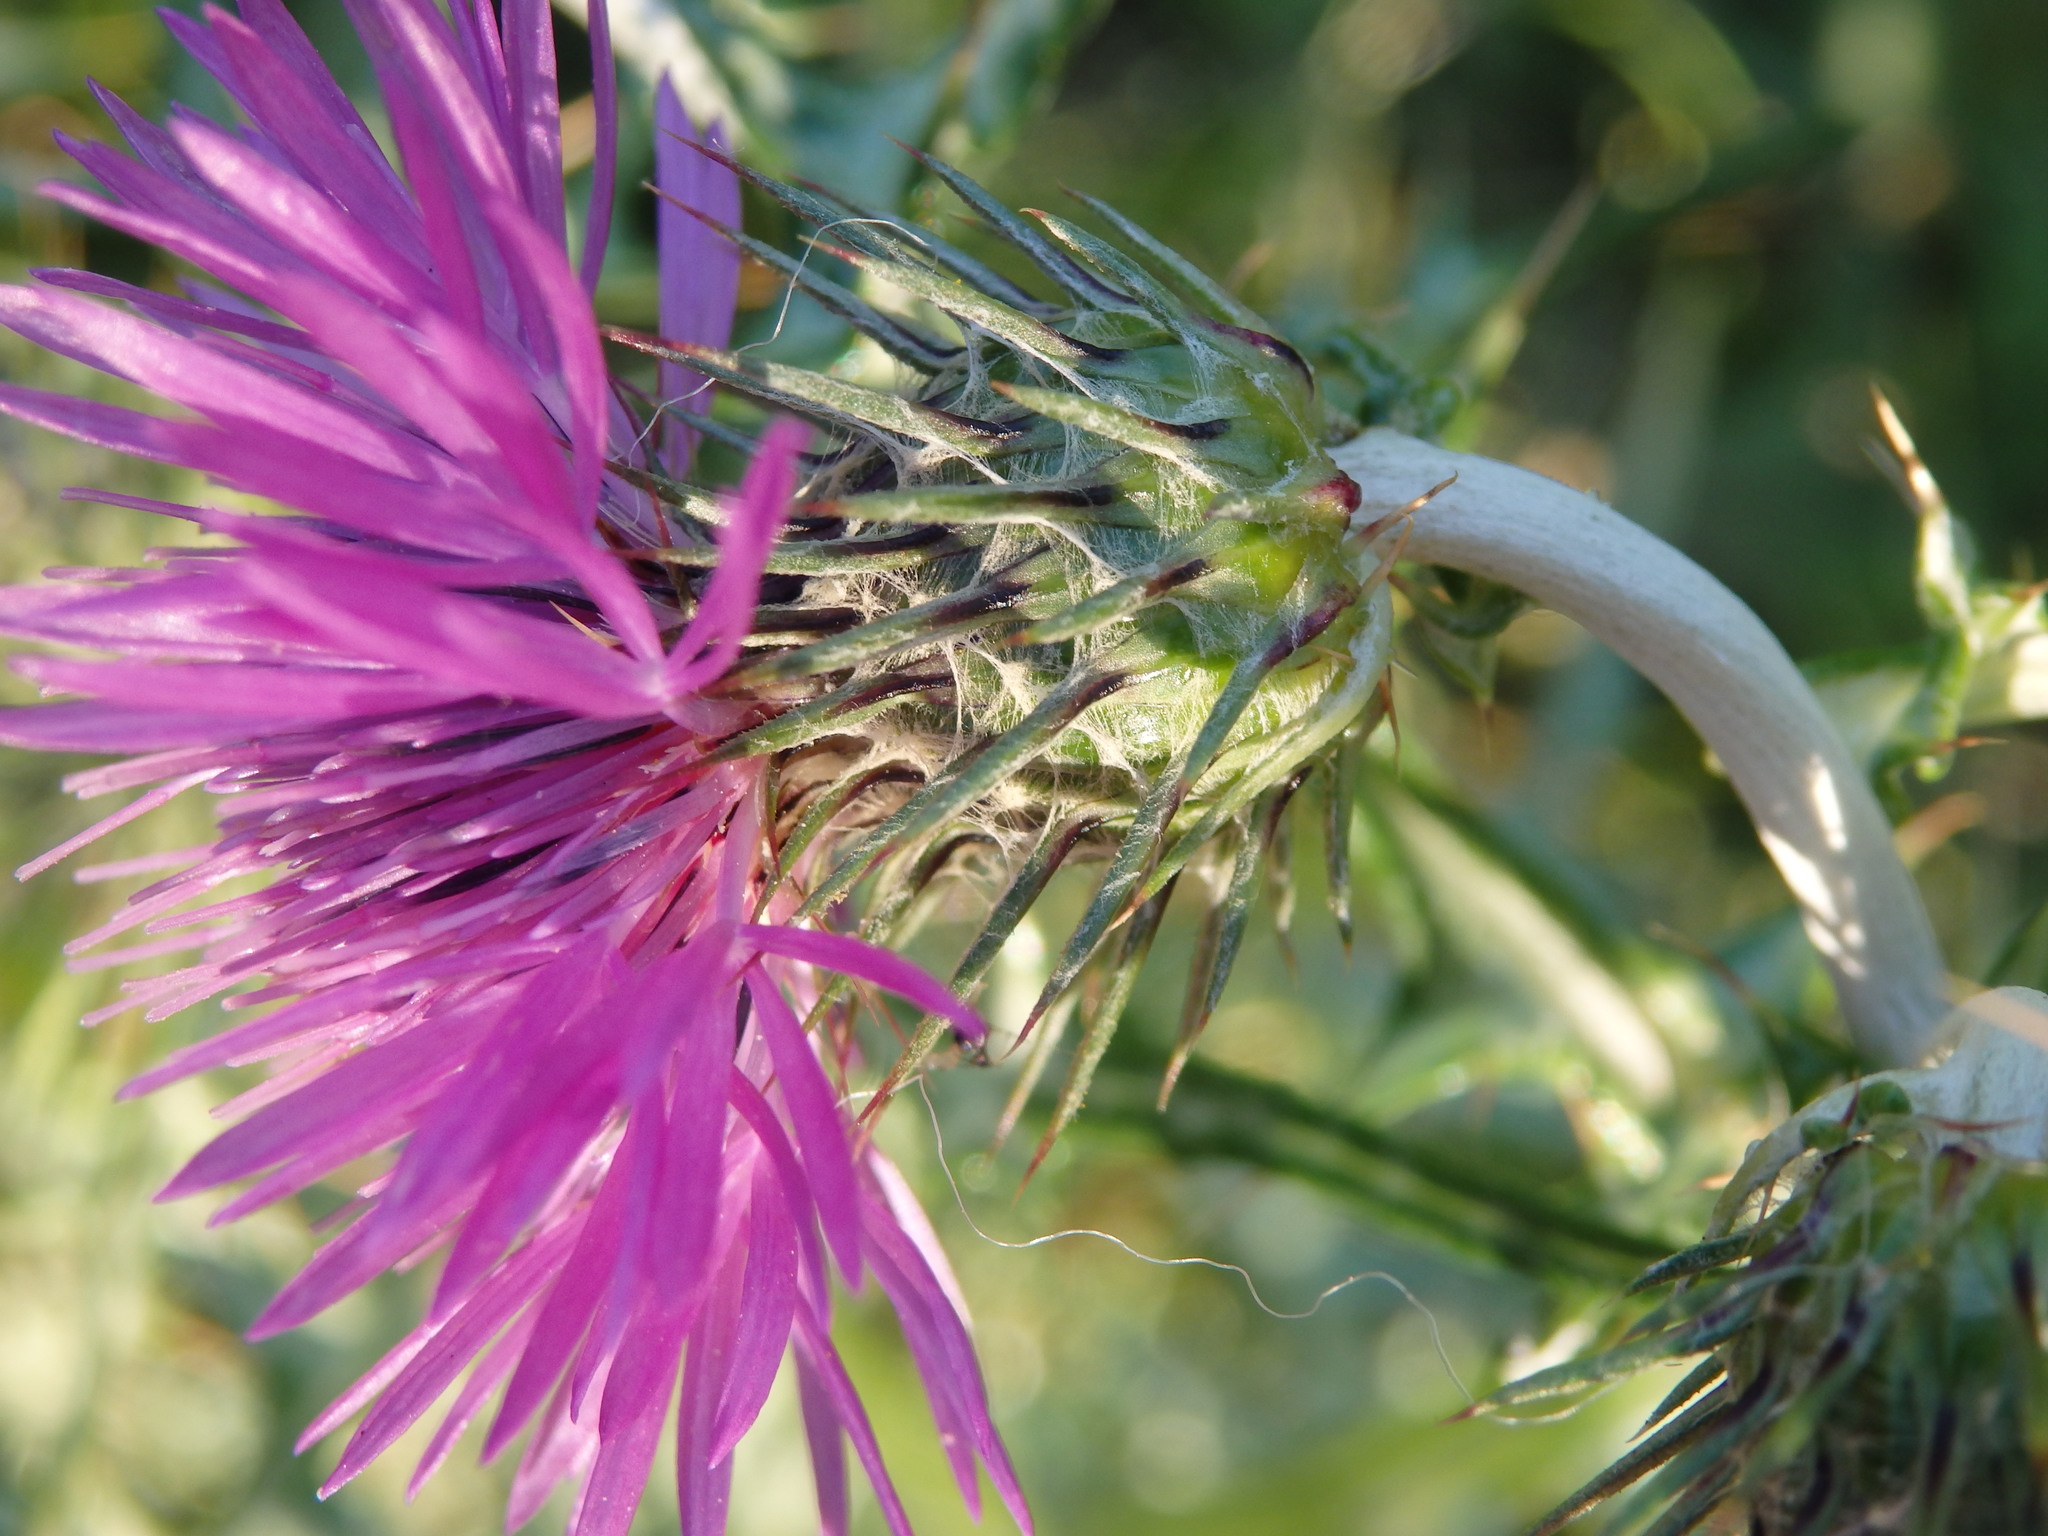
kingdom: Plantae
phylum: Tracheophyta
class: Magnoliopsida
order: Asterales
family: Asteraceae
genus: Galactites
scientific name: Galactites tomentosa
